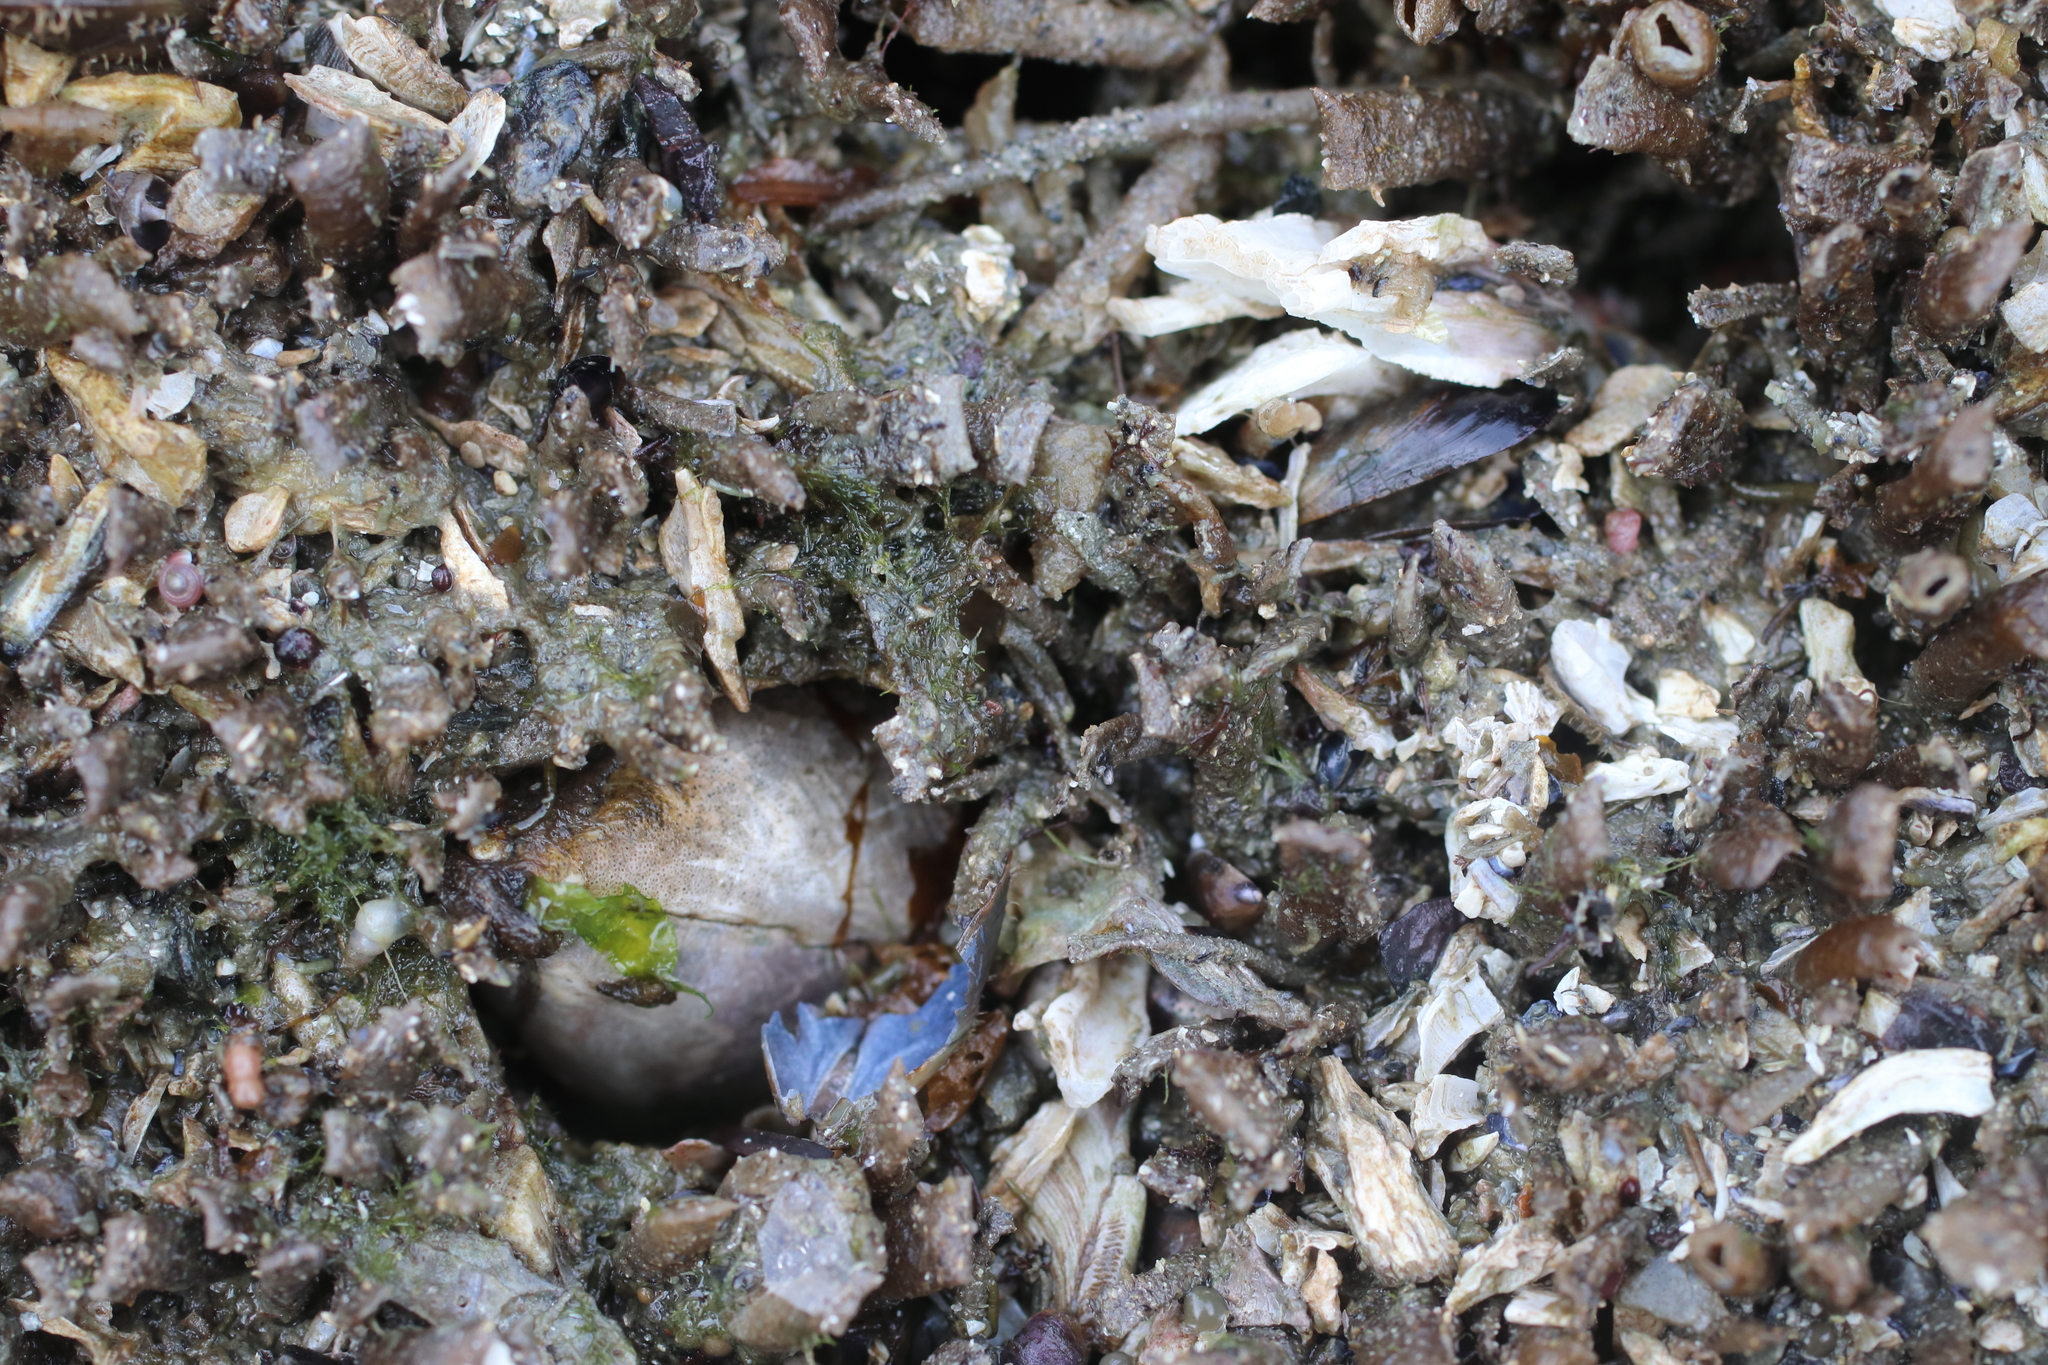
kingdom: Animalia
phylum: Annelida
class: Polychaeta
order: Sabellida
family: Sabellidae
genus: Schizobranchia
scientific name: Schizobranchia insignis
